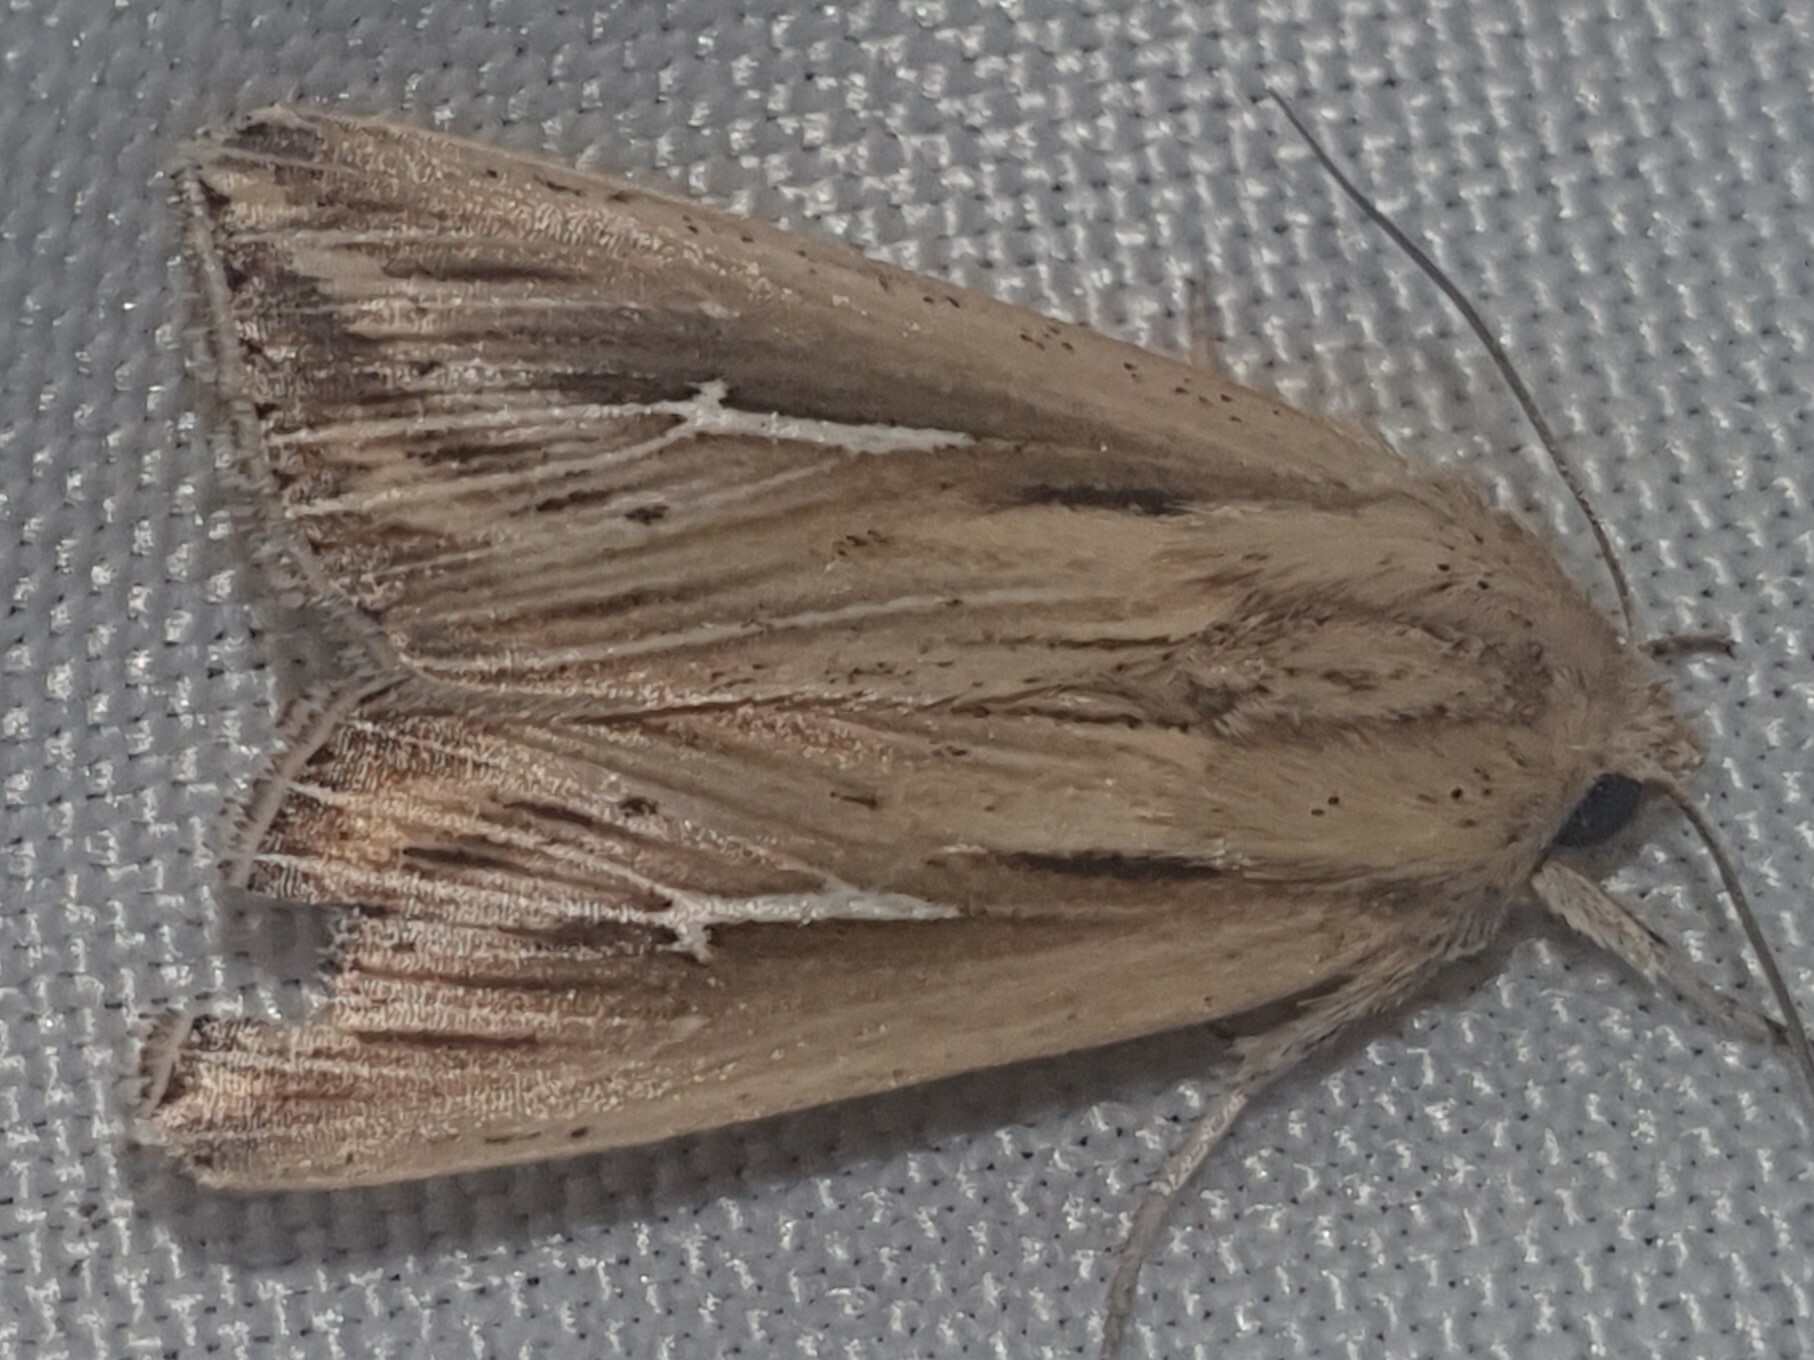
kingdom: Animalia
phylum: Arthropoda
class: Insecta
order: Lepidoptera
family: Noctuidae
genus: Mythimna
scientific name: Mythimna l-album
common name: L-album wainscot
